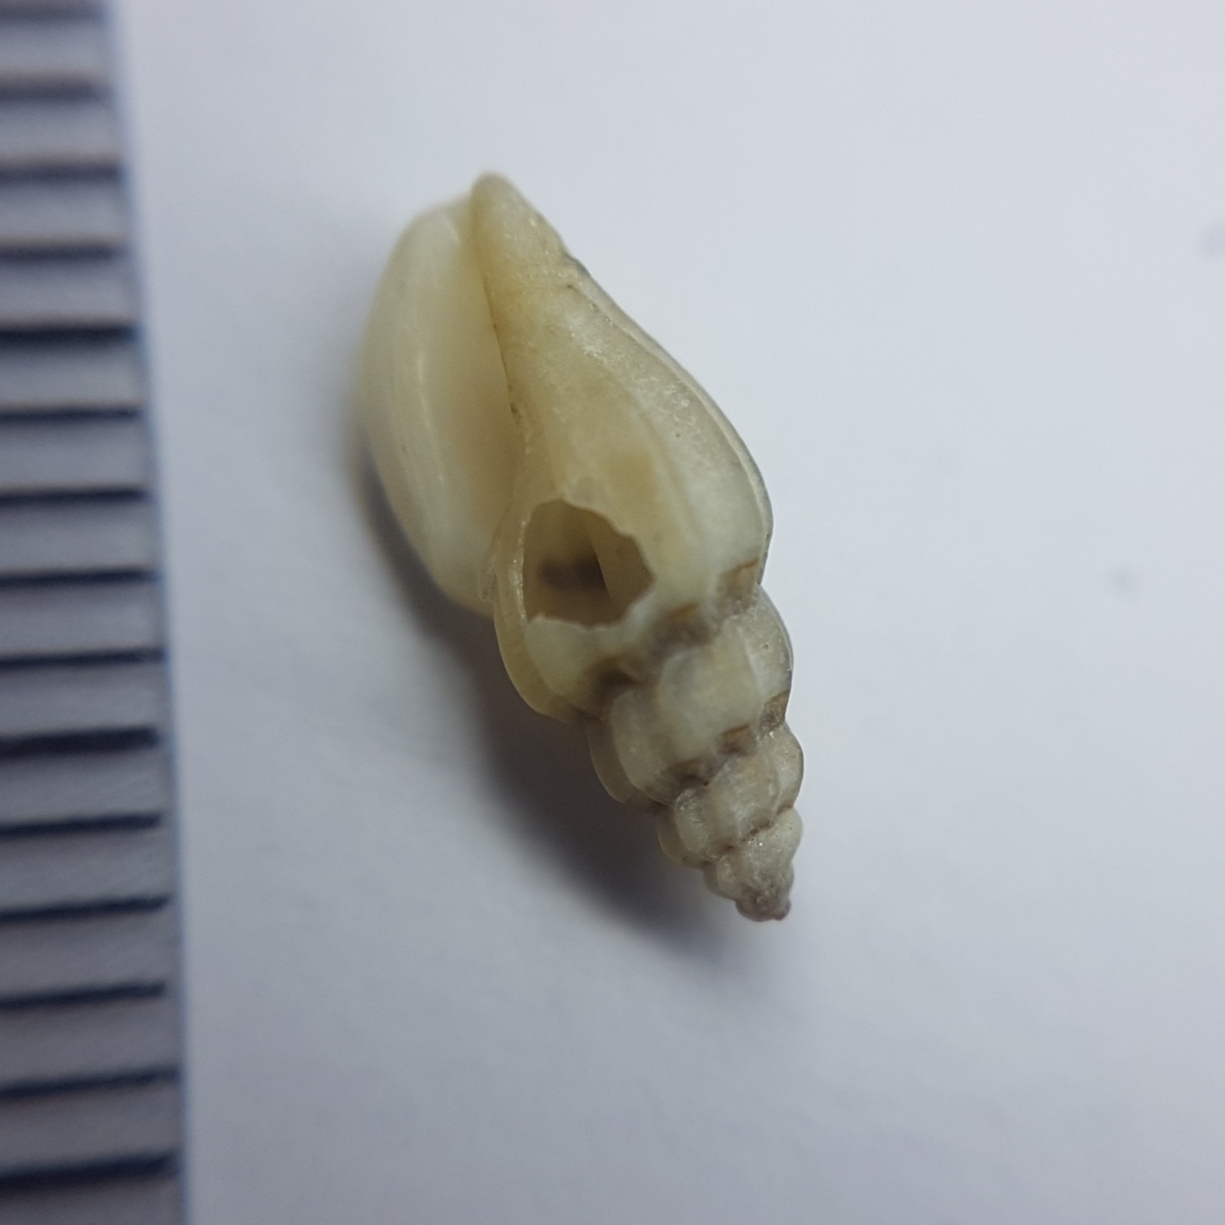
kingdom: Animalia
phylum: Mollusca
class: Gastropoda
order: Neogastropoda
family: Mangeliidae
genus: Pseudomangelia
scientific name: Pseudomangelia vauquelini
